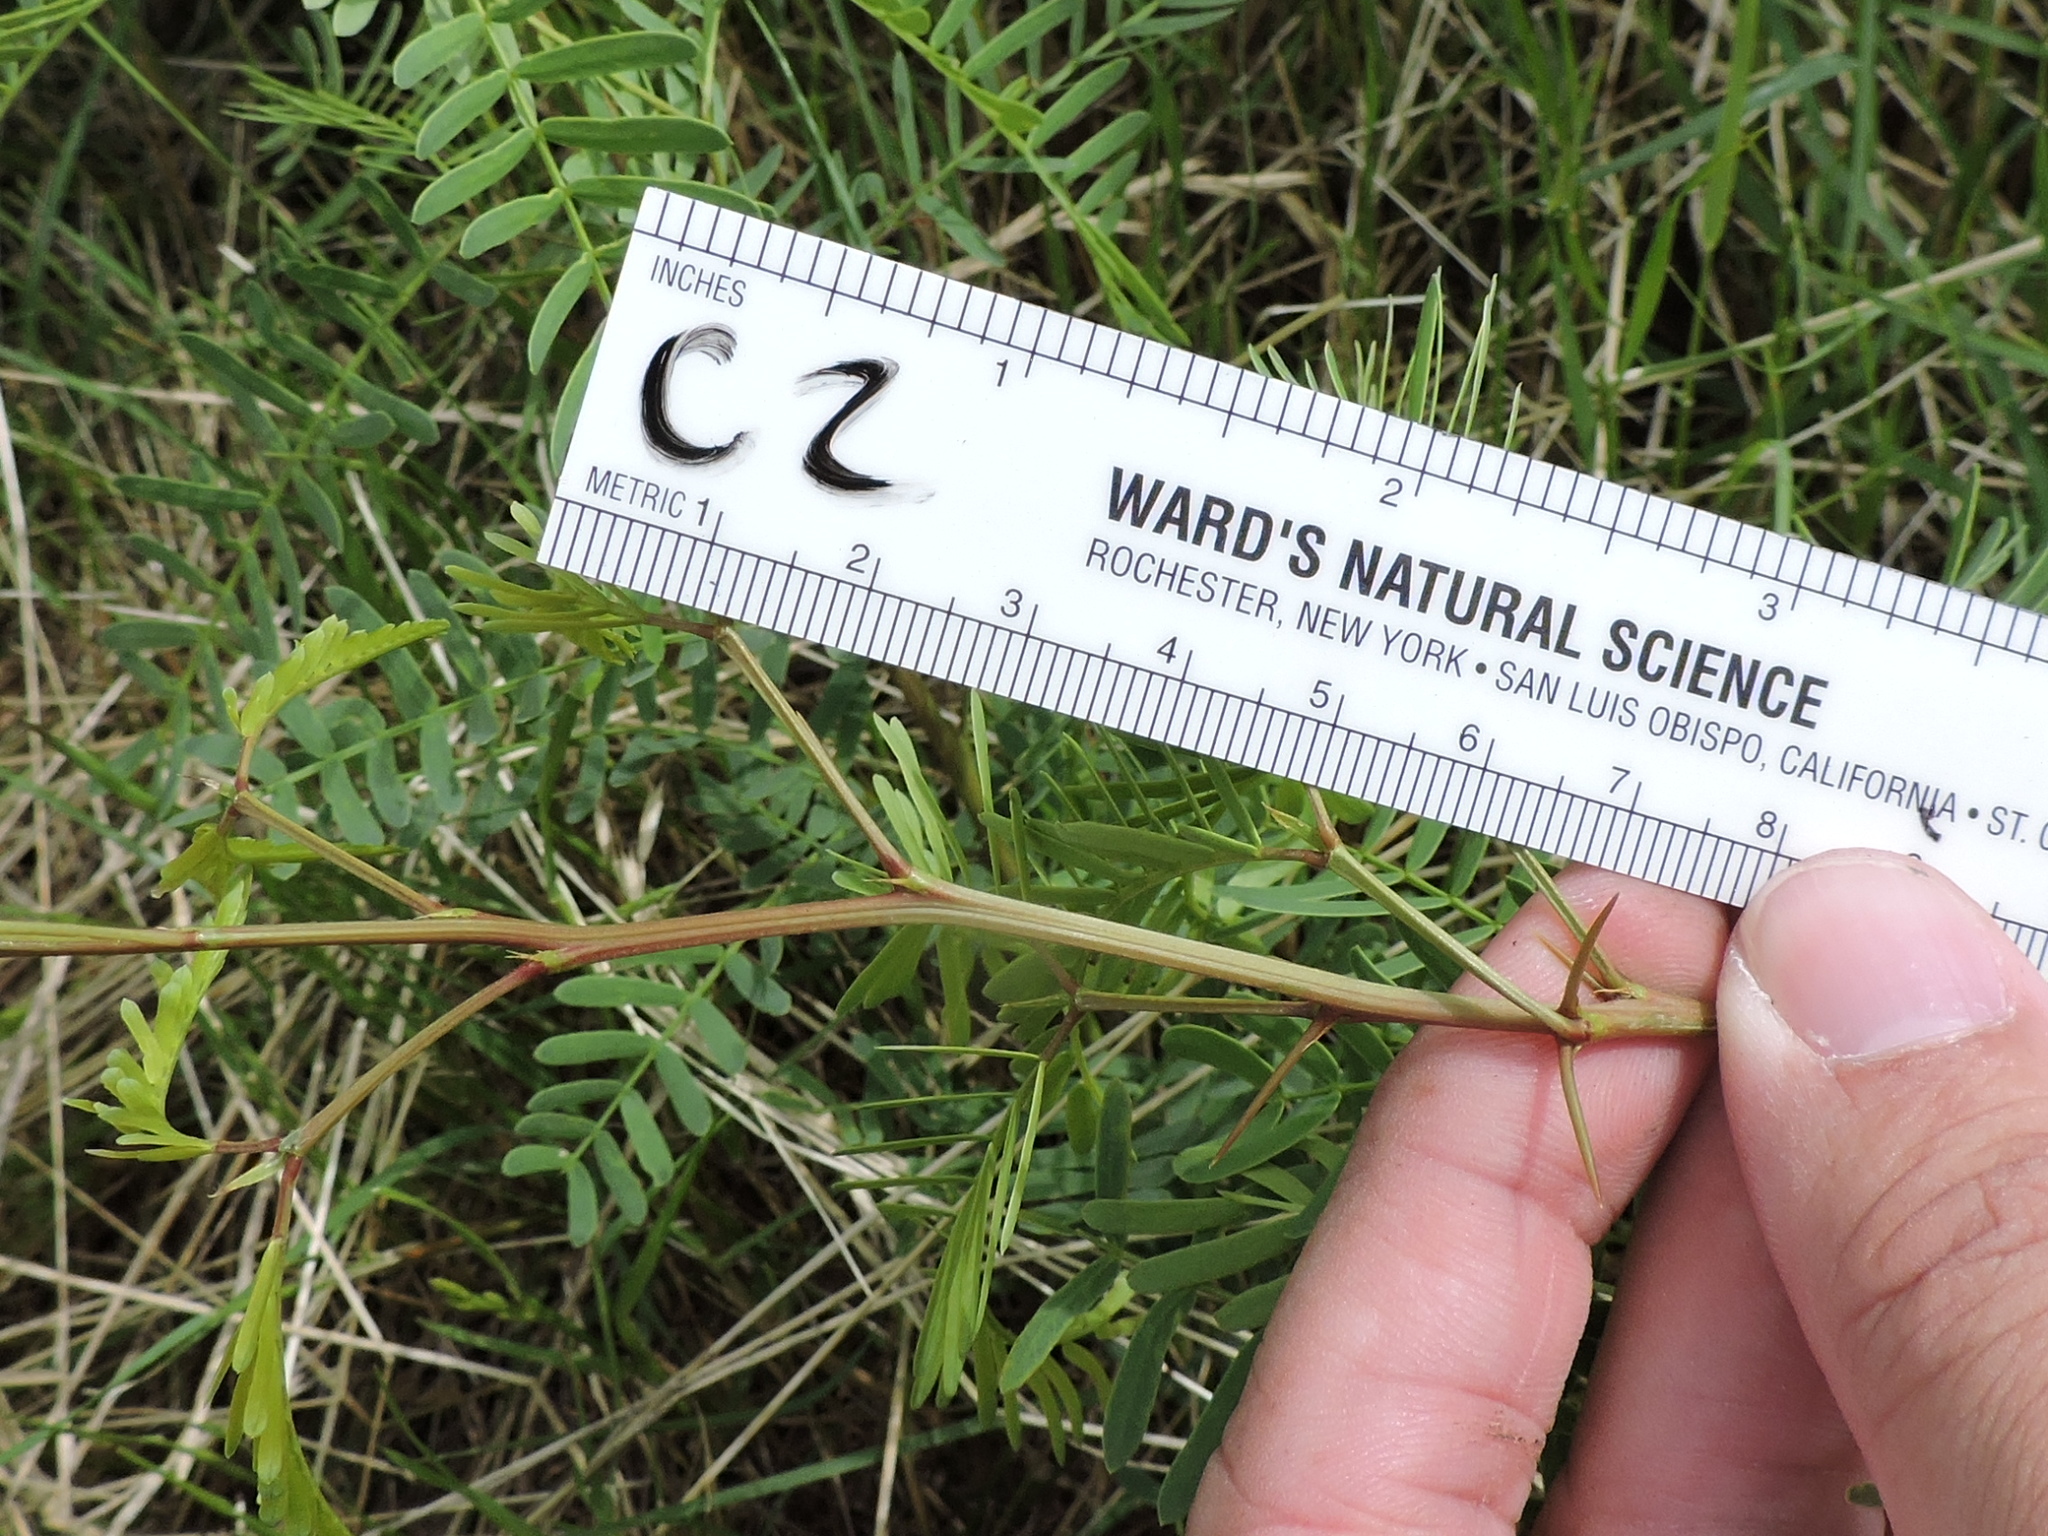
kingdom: Plantae
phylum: Tracheophyta
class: Magnoliopsida
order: Fabales
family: Fabaceae
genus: Prosopis
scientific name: Prosopis glandulosa
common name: Honey mesquite
